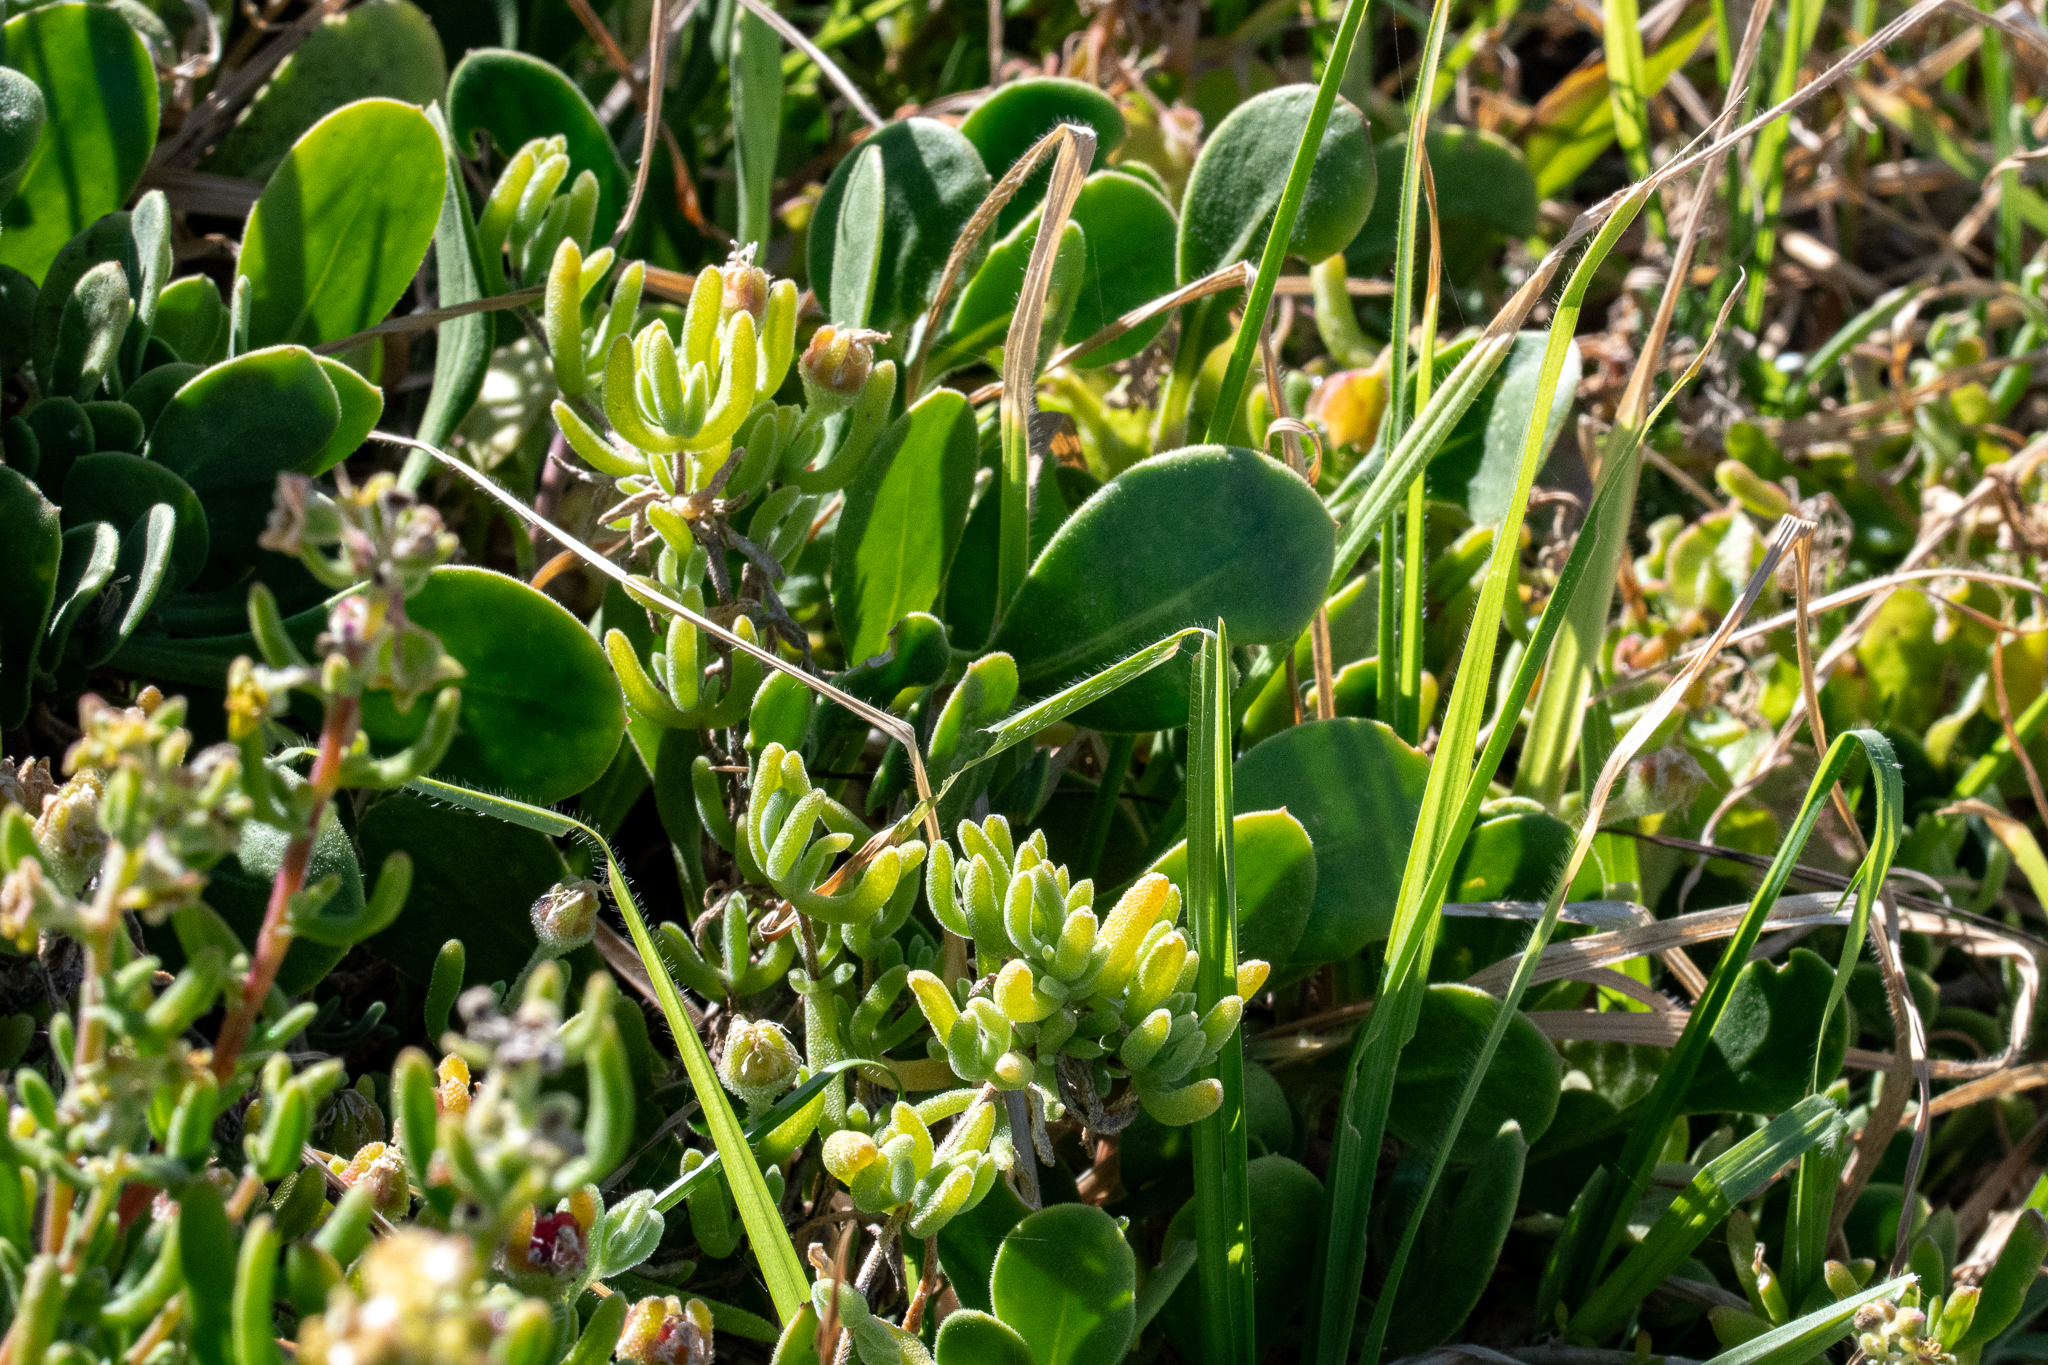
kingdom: Plantae
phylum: Tracheophyta
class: Magnoliopsida
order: Caryophyllales
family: Aizoaceae
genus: Drosanthemum
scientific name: Drosanthemum candens
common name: Rodondo-creeper
